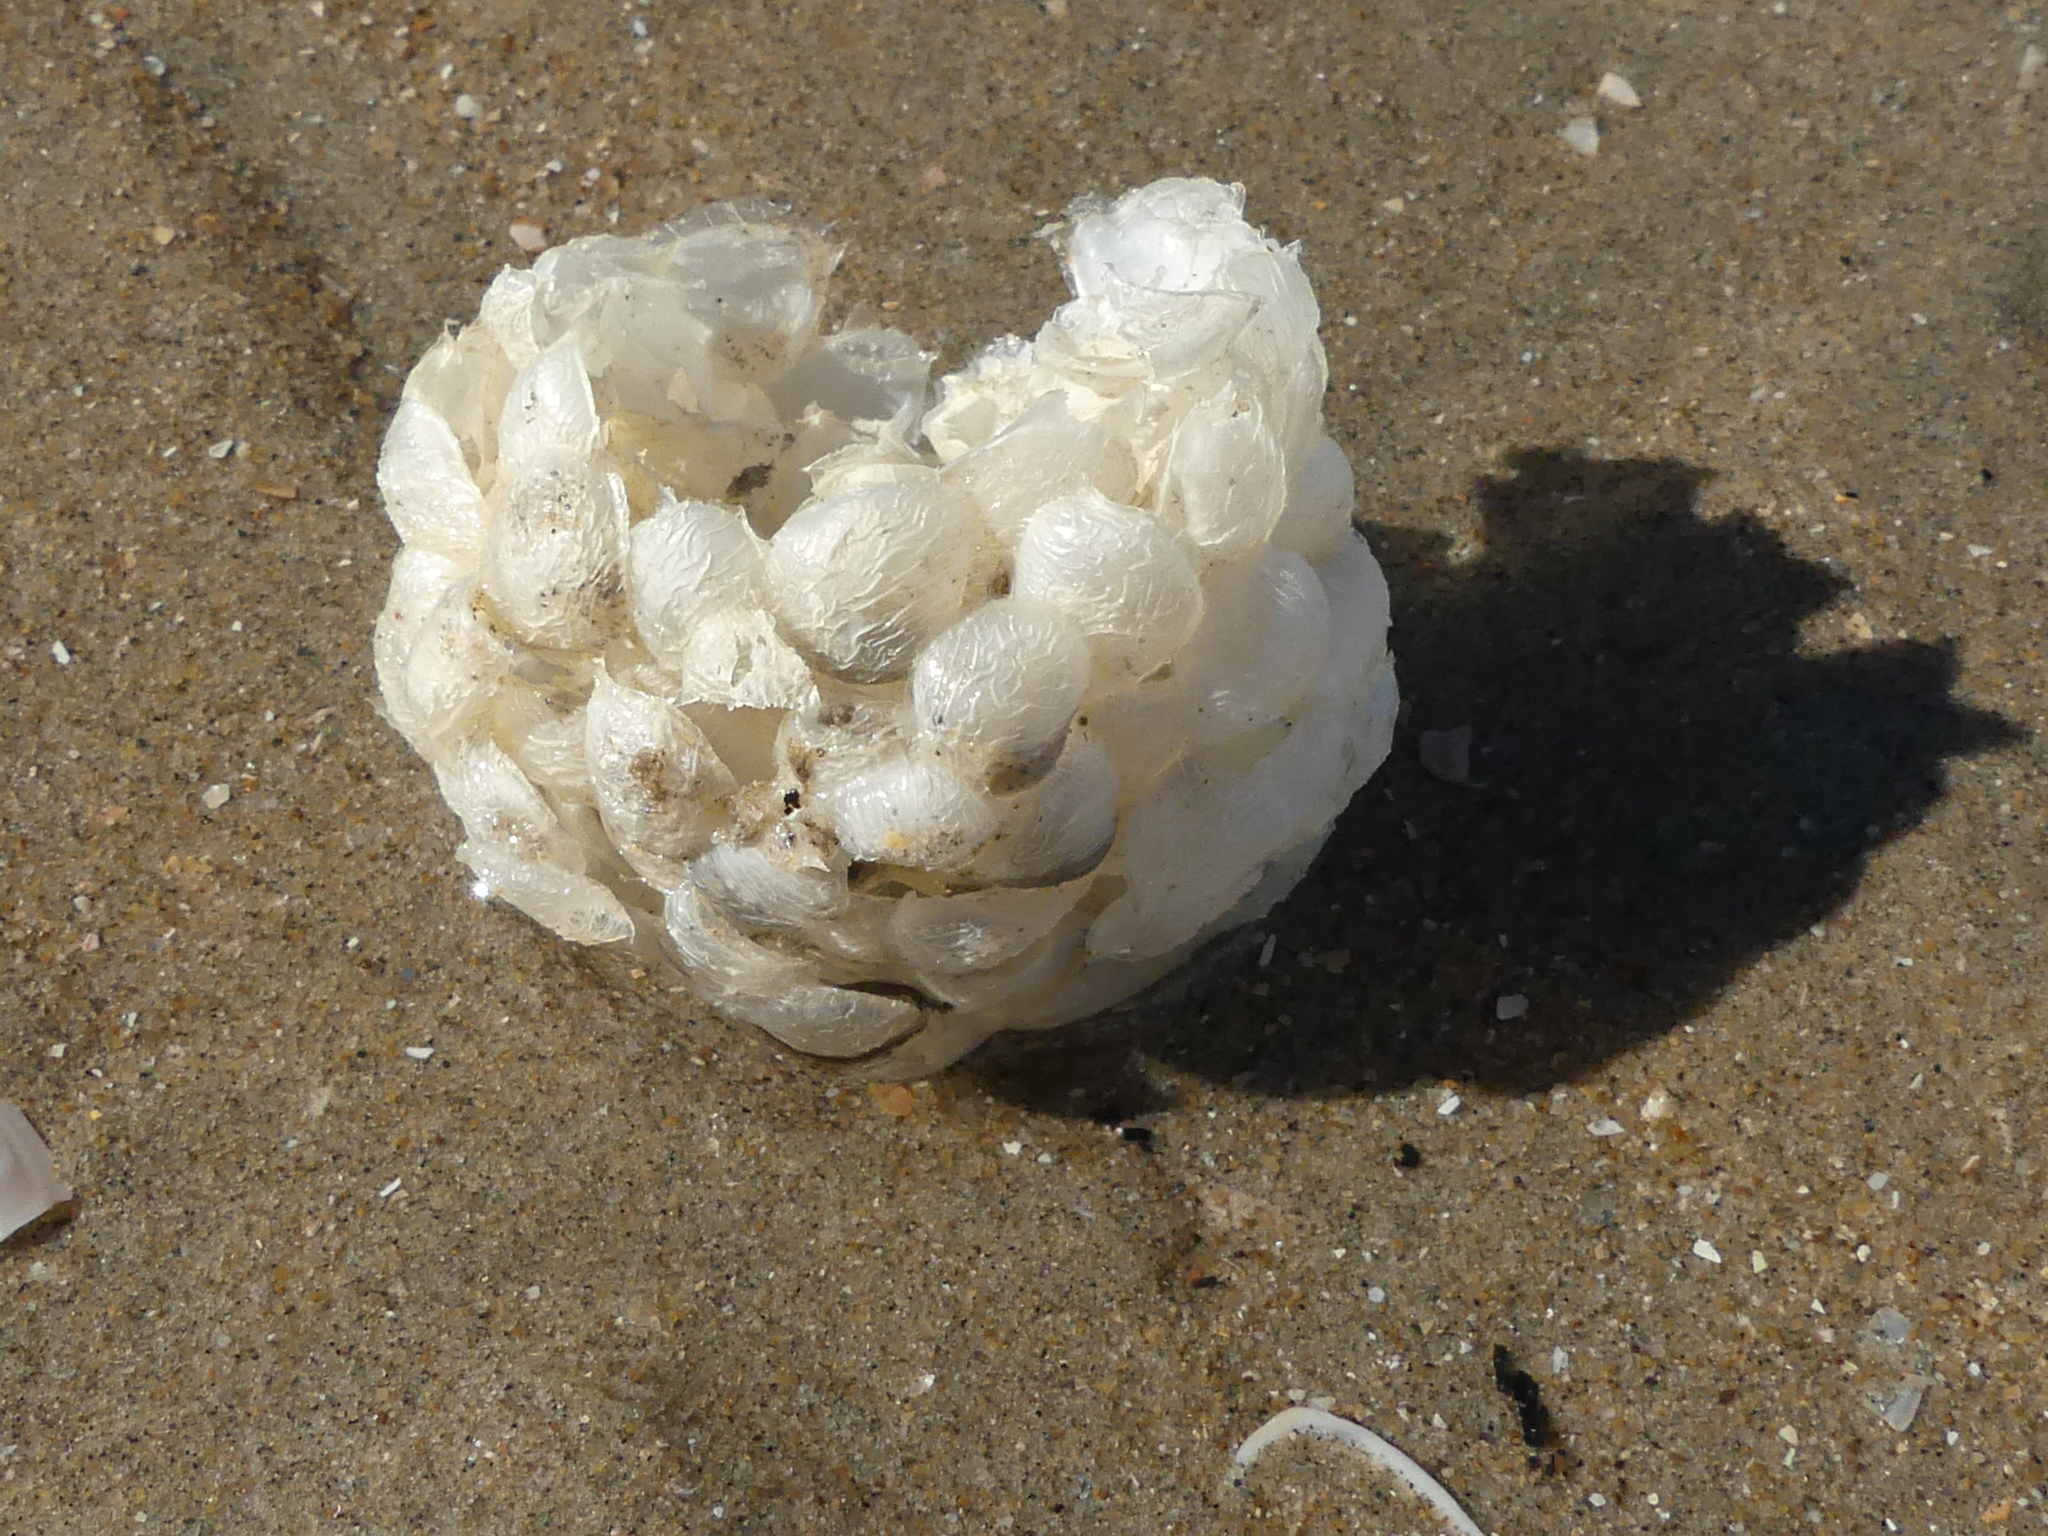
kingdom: Animalia
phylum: Mollusca
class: Gastropoda
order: Neogastropoda
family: Buccinidae
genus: Buccinum
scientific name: Buccinum undatum
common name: Common whelk
